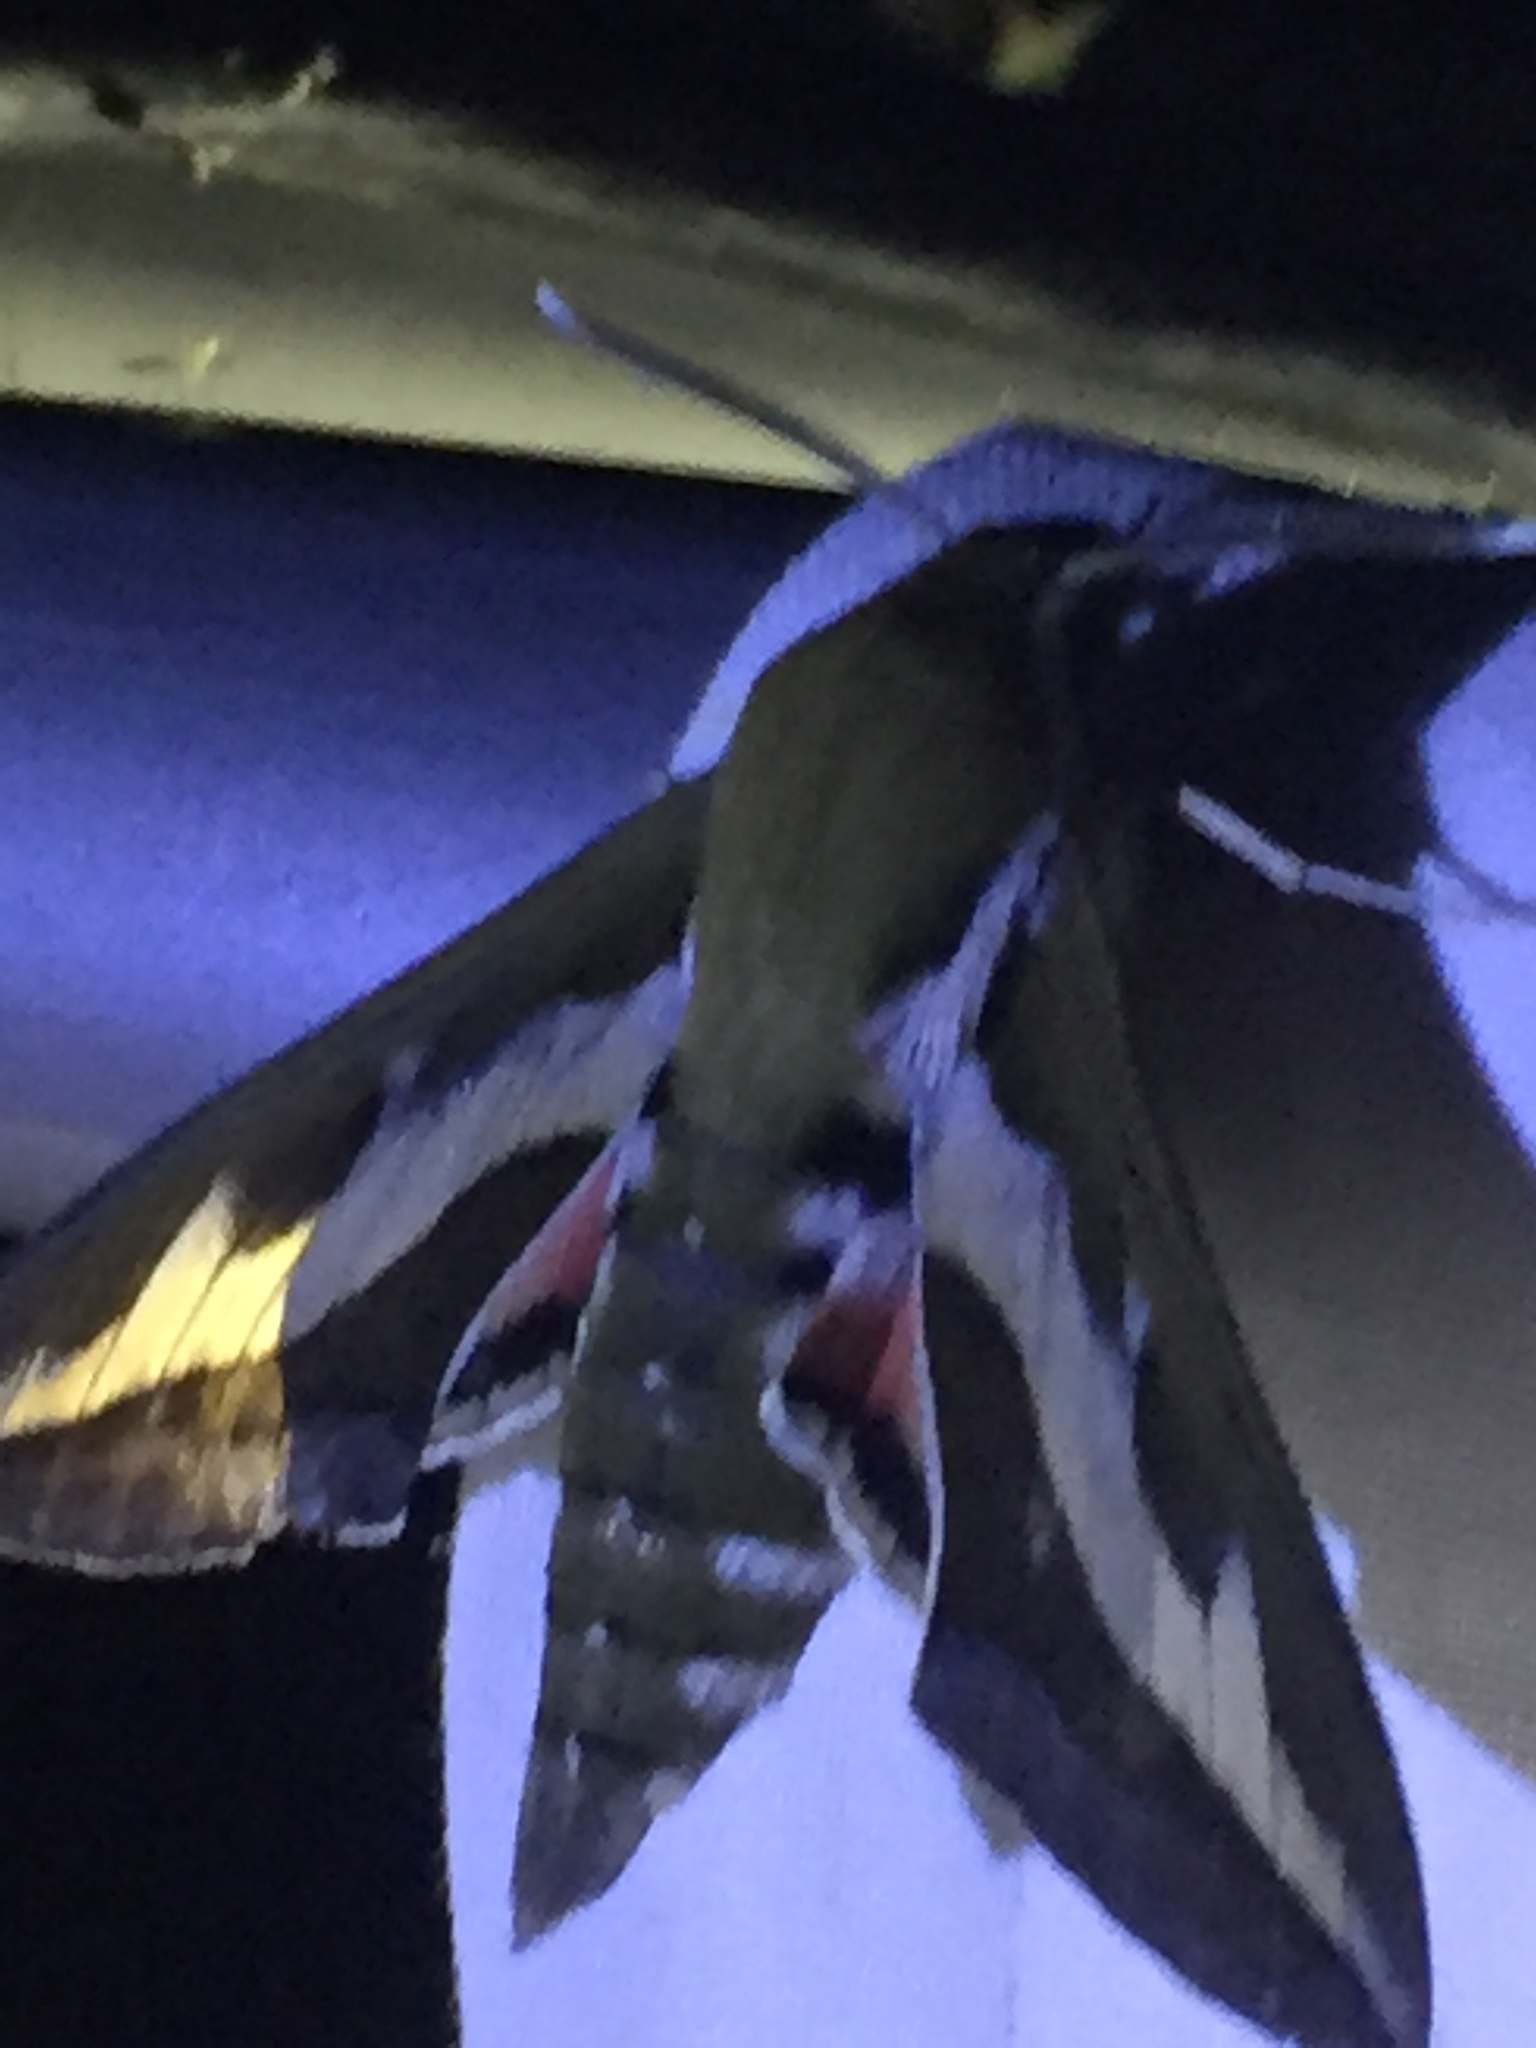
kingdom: Animalia
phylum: Arthropoda
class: Insecta
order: Lepidoptera
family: Sphingidae
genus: Hyles
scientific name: Hyles gallii
